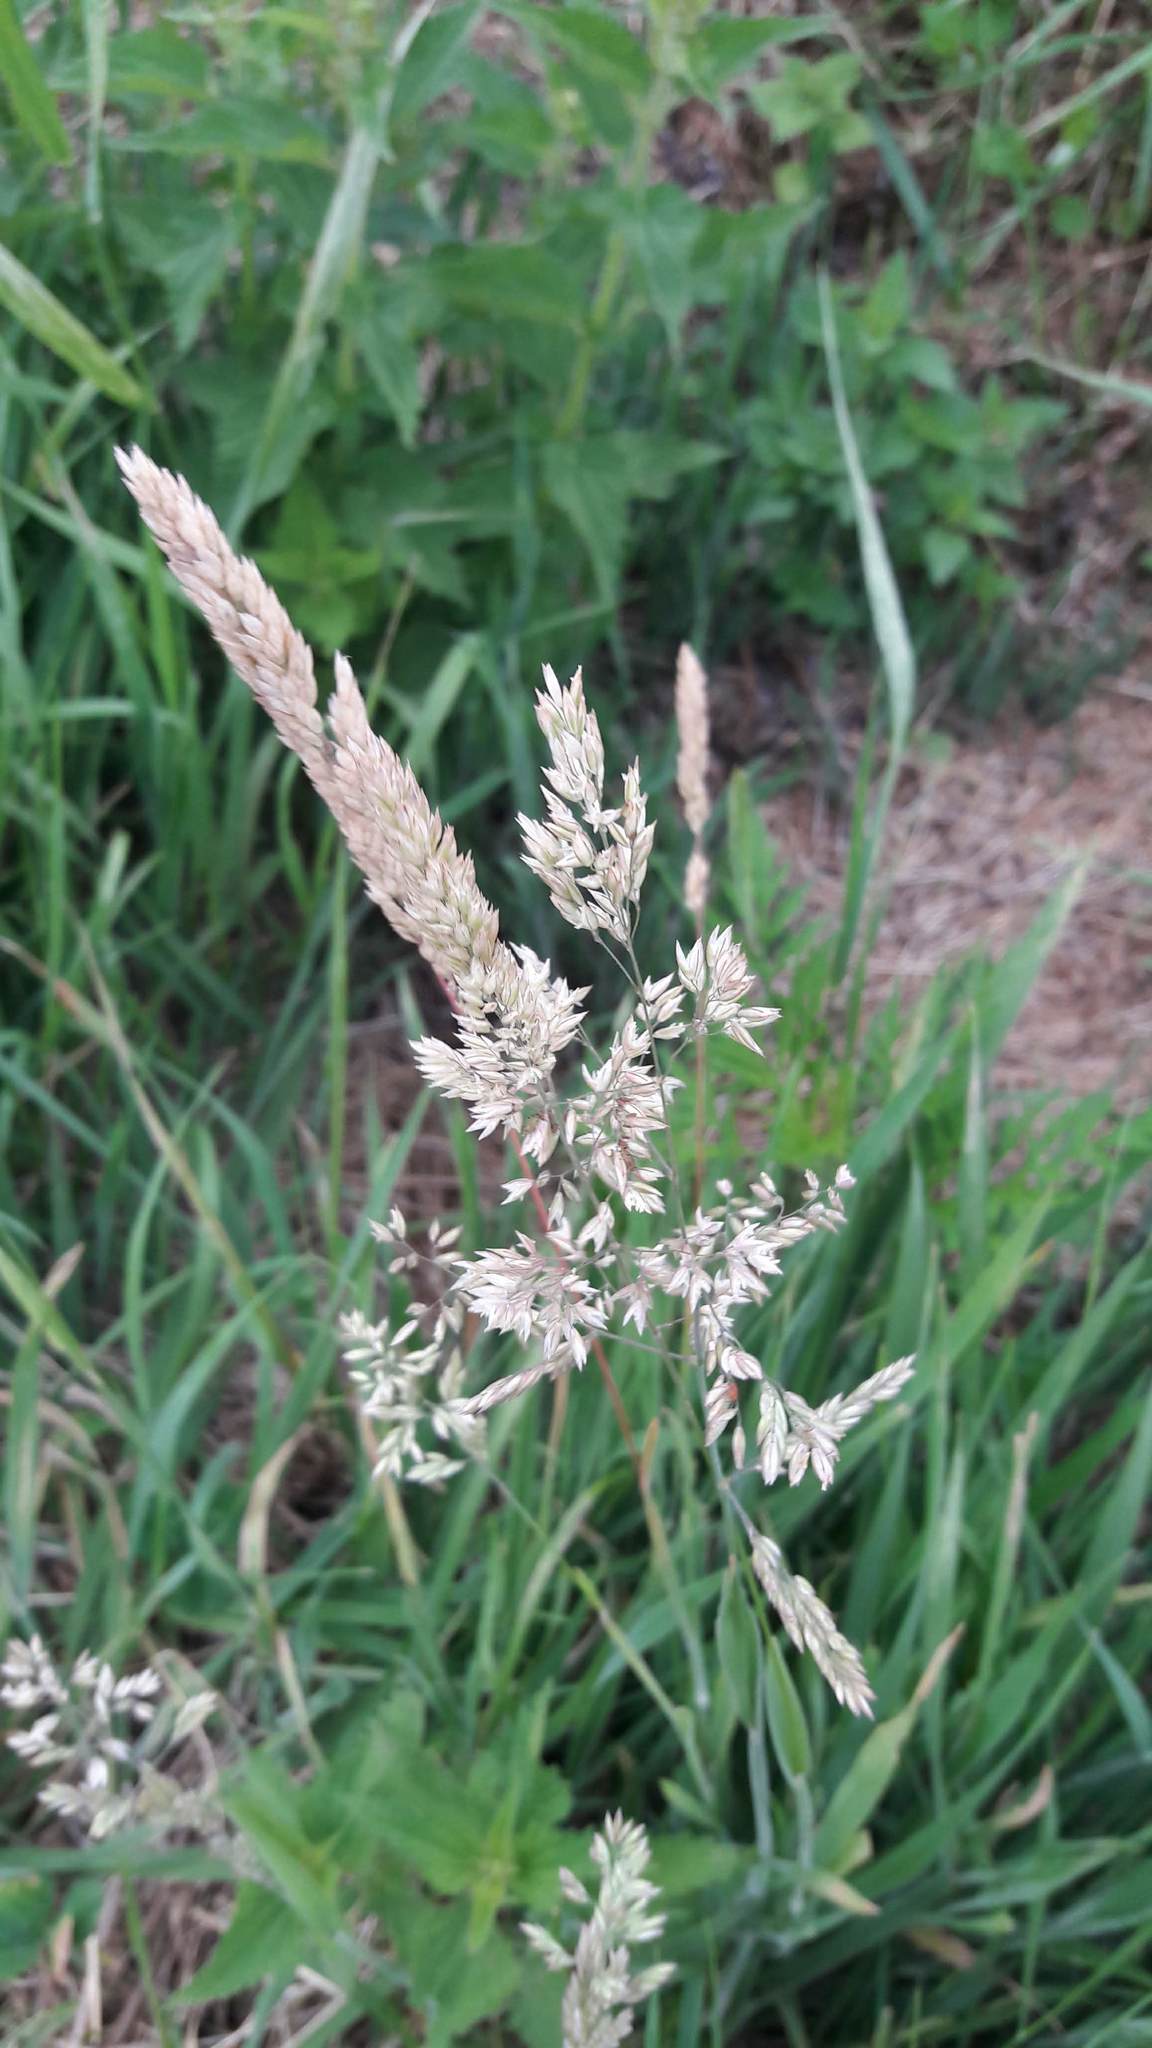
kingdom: Plantae
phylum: Tracheophyta
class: Liliopsida
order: Poales
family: Poaceae
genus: Holcus
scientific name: Holcus lanatus
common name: Yorkshire-fog
